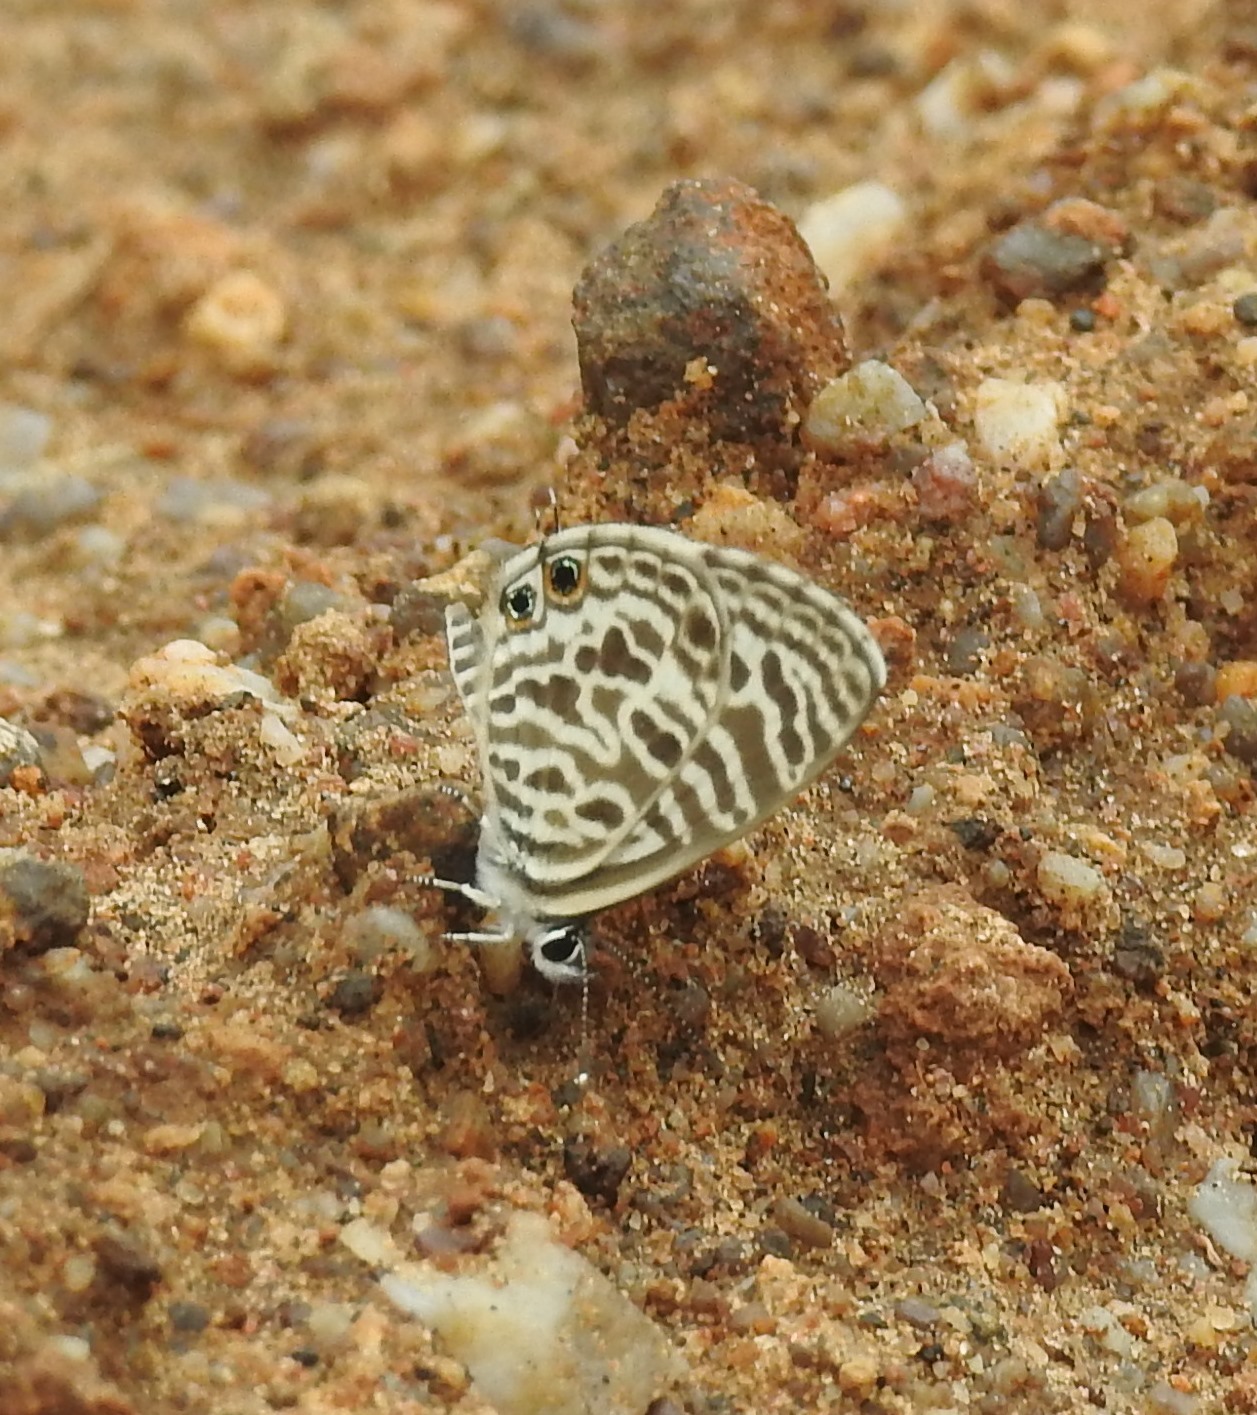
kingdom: Animalia
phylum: Arthropoda
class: Insecta
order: Lepidoptera
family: Lycaenidae
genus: Leptotes
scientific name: Leptotes plinius
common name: Zebra blue
